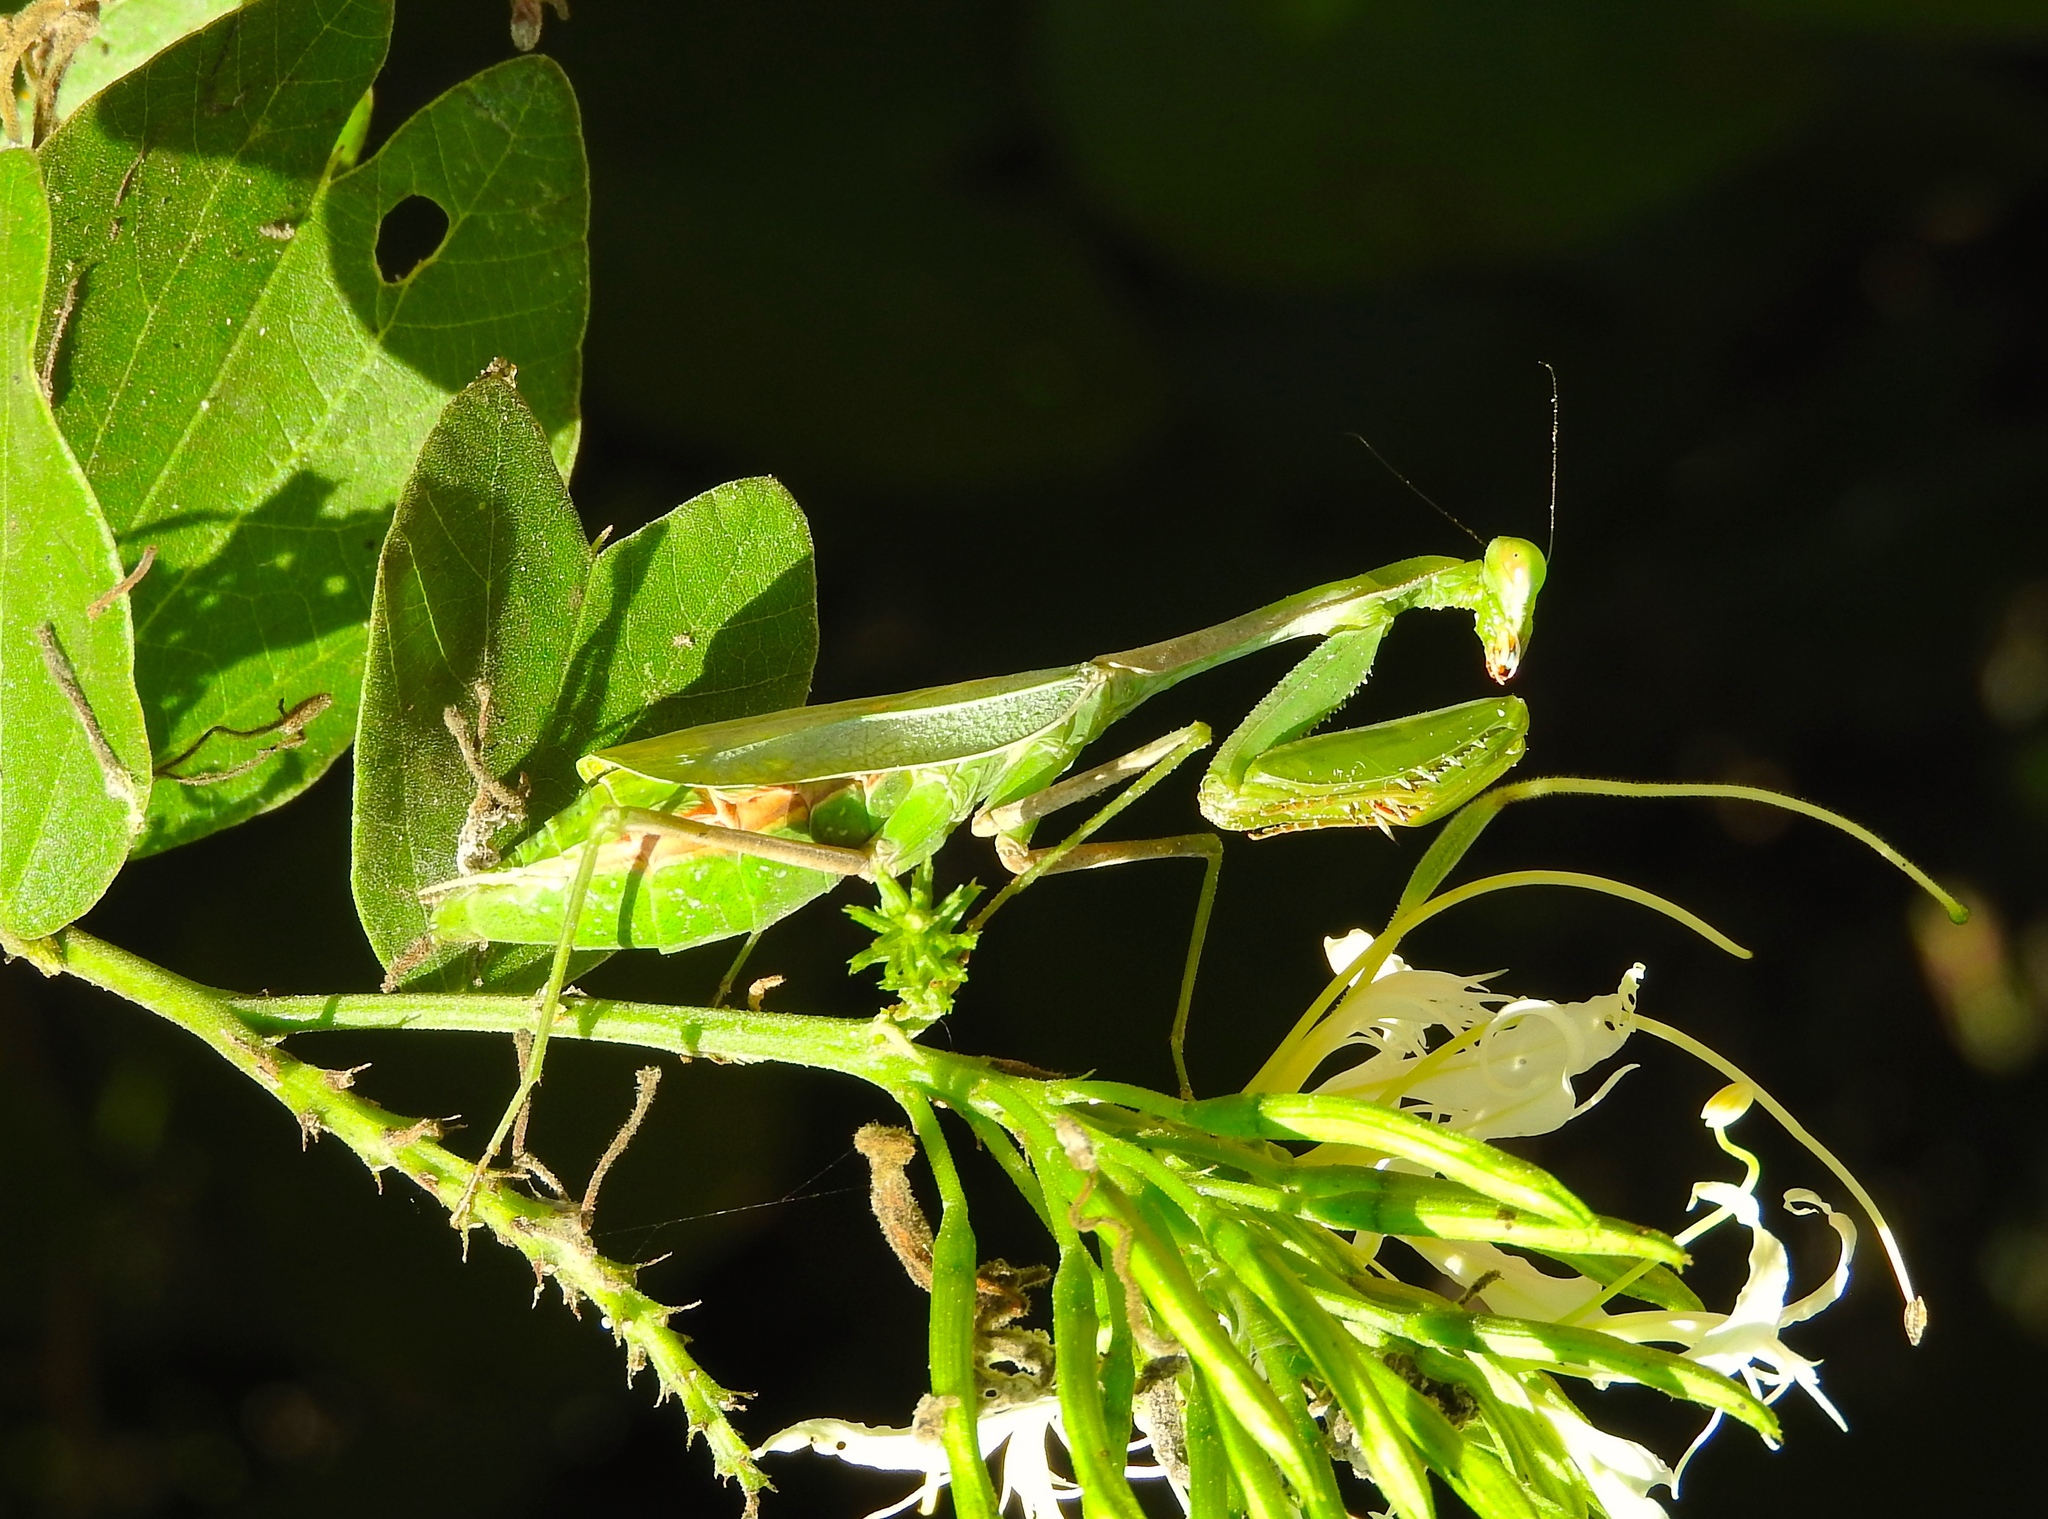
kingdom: Animalia
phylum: Arthropoda
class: Insecta
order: Mantodea
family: Mantidae
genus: Stagmomantis
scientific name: Stagmomantis limbata
